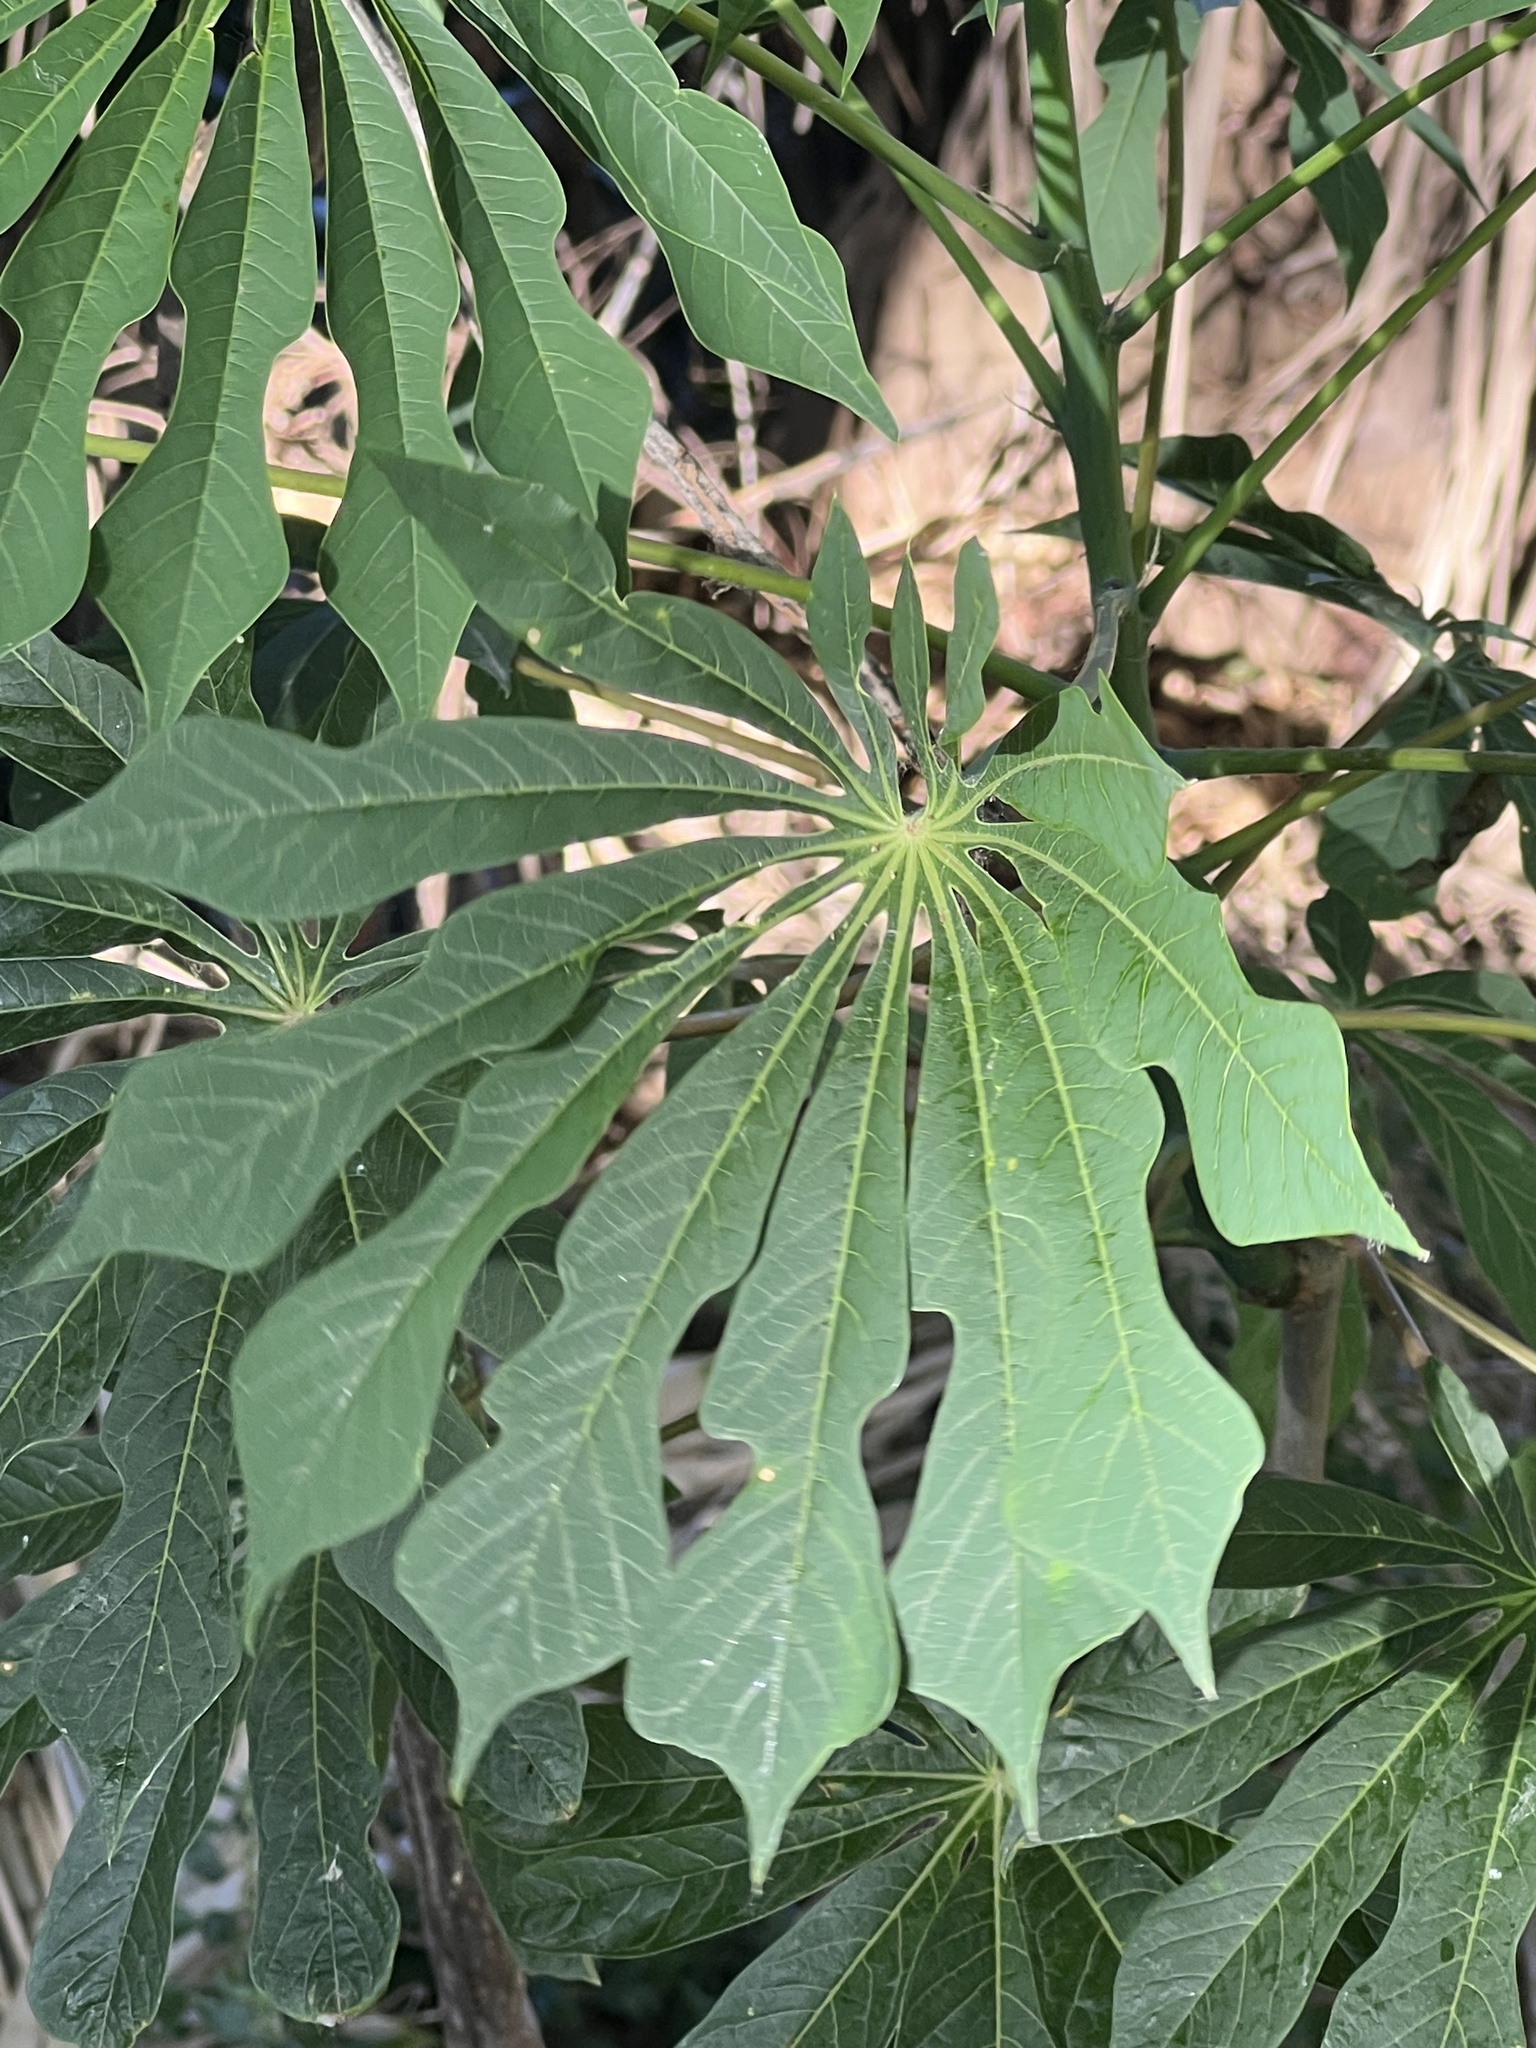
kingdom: Plantae
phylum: Tracheophyta
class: Magnoliopsida
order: Malpighiales
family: Euphorbiaceae
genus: Manihot
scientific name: Manihot grahamii
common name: Graham's manihot
